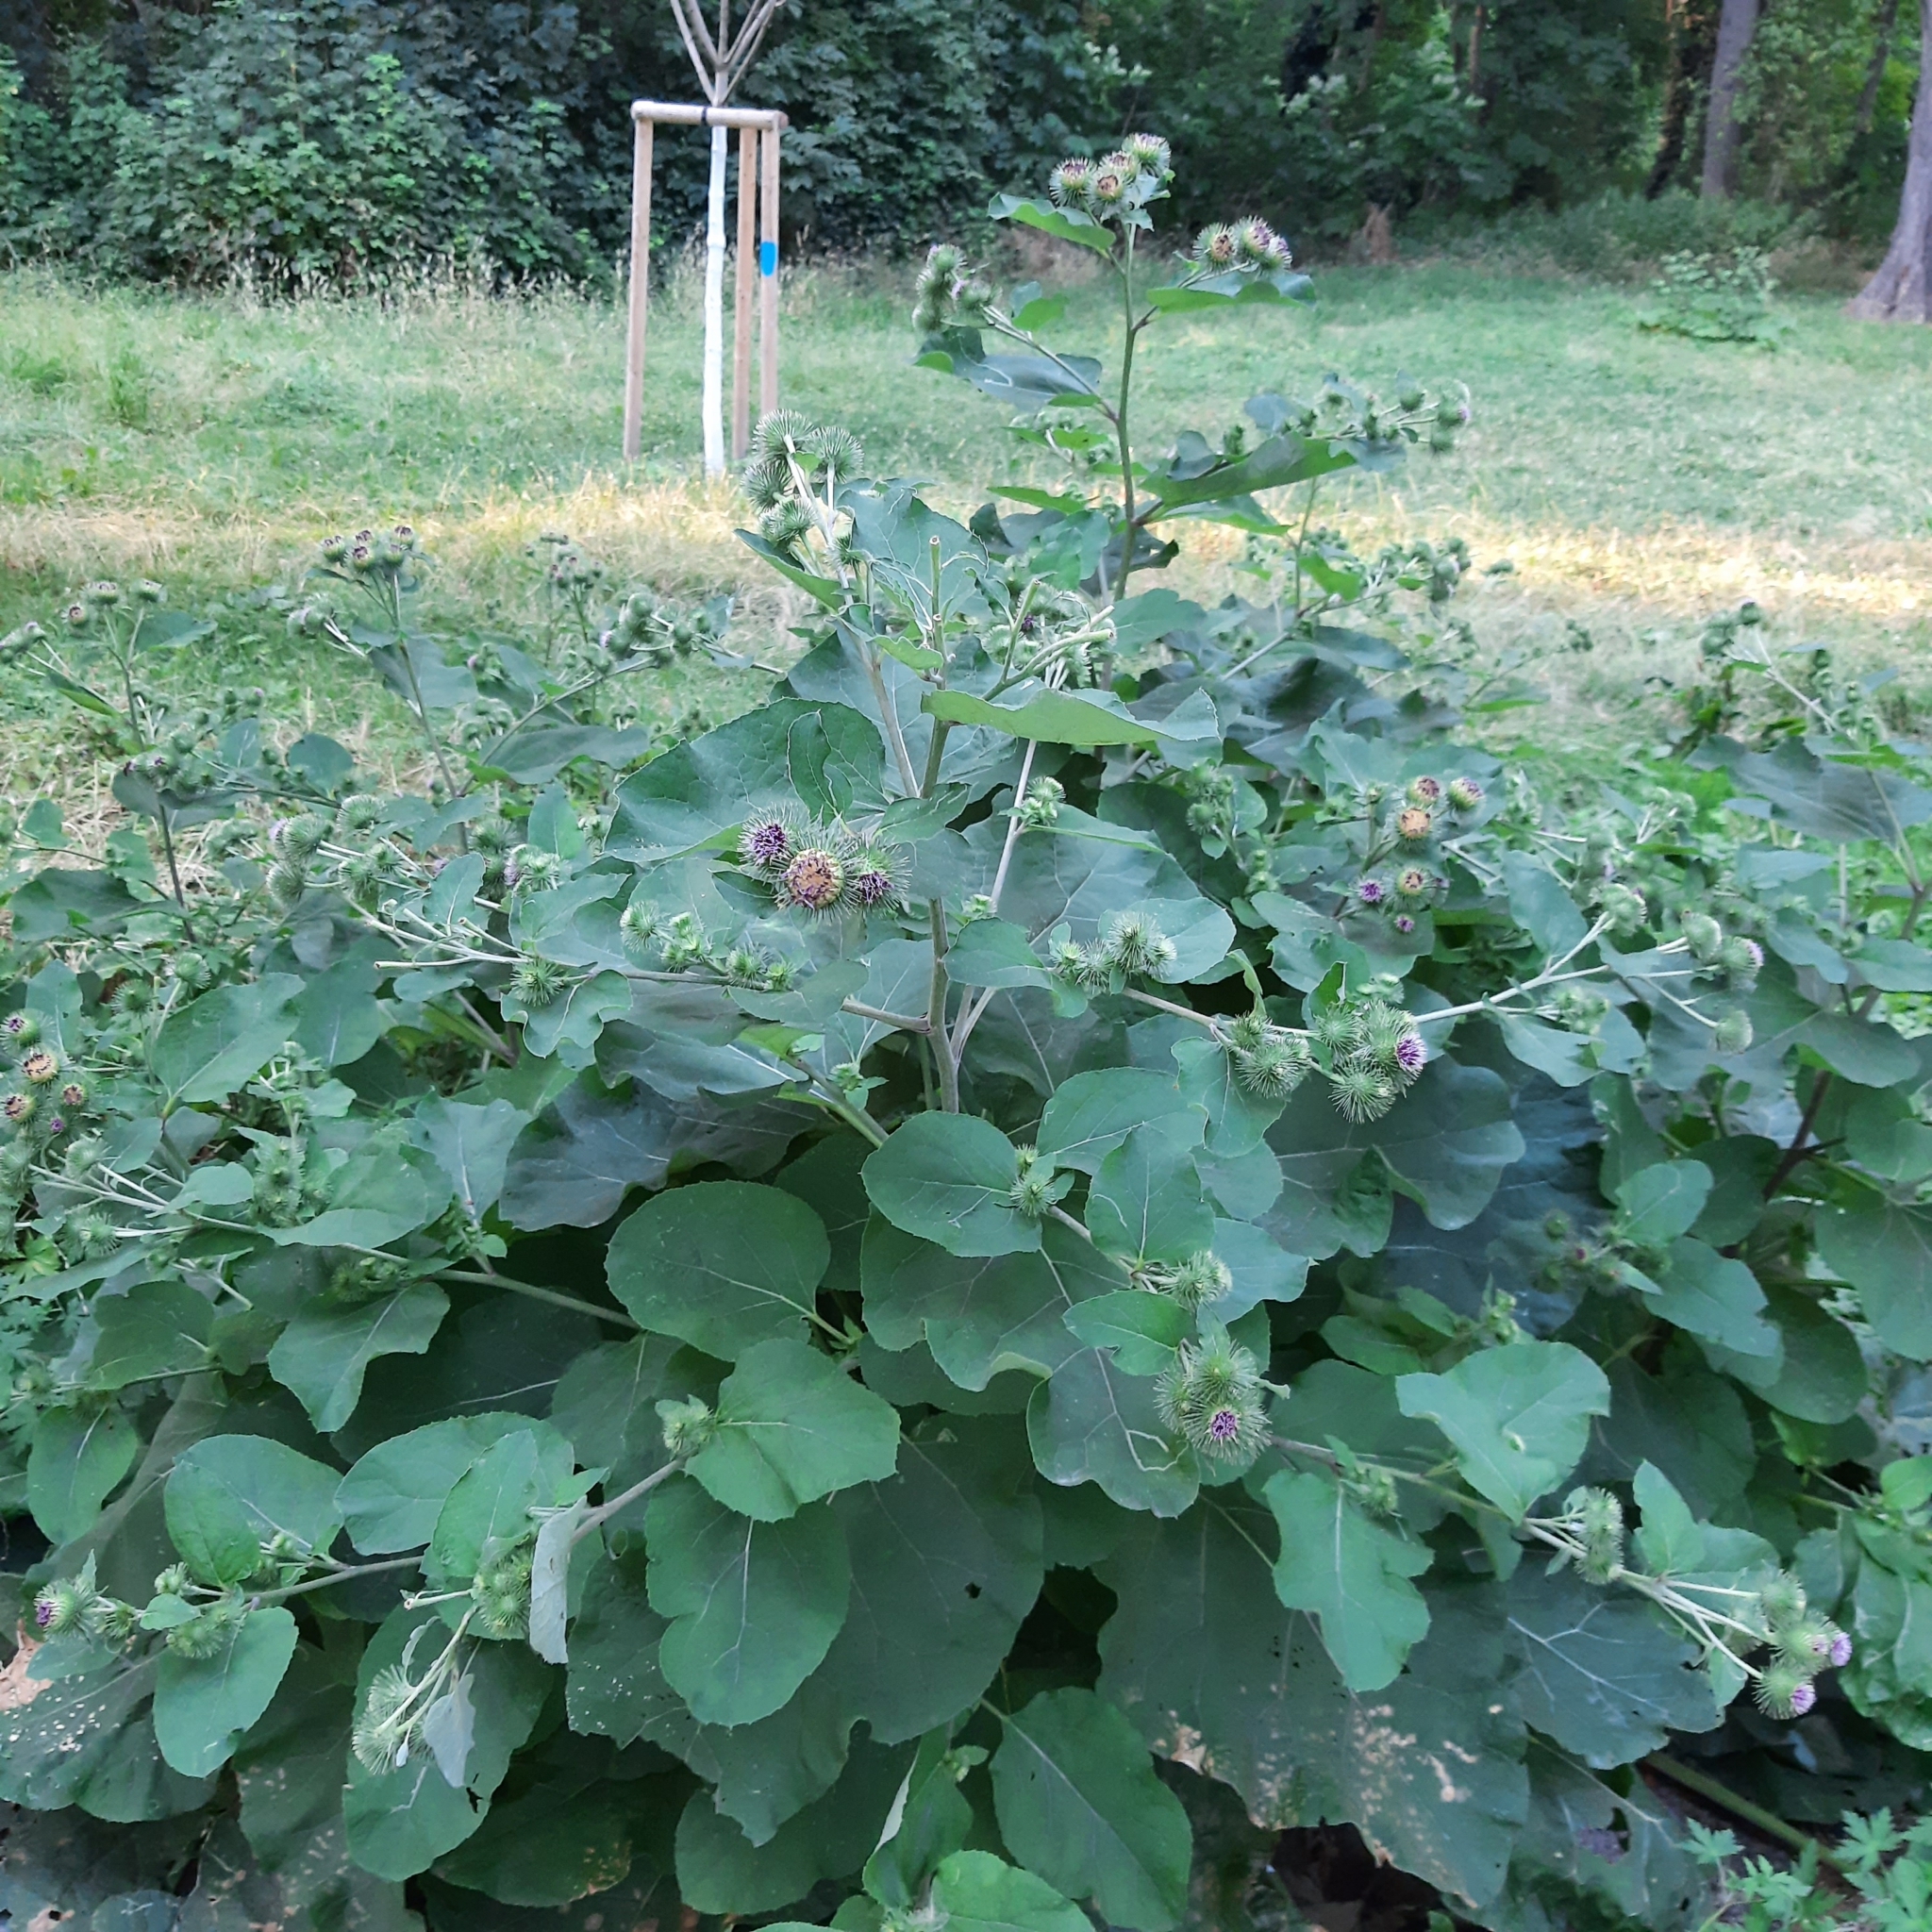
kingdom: Plantae
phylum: Tracheophyta
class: Magnoliopsida
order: Asterales
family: Asteraceae
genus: Arctium
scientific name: Arctium lappa
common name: Greater burdock
